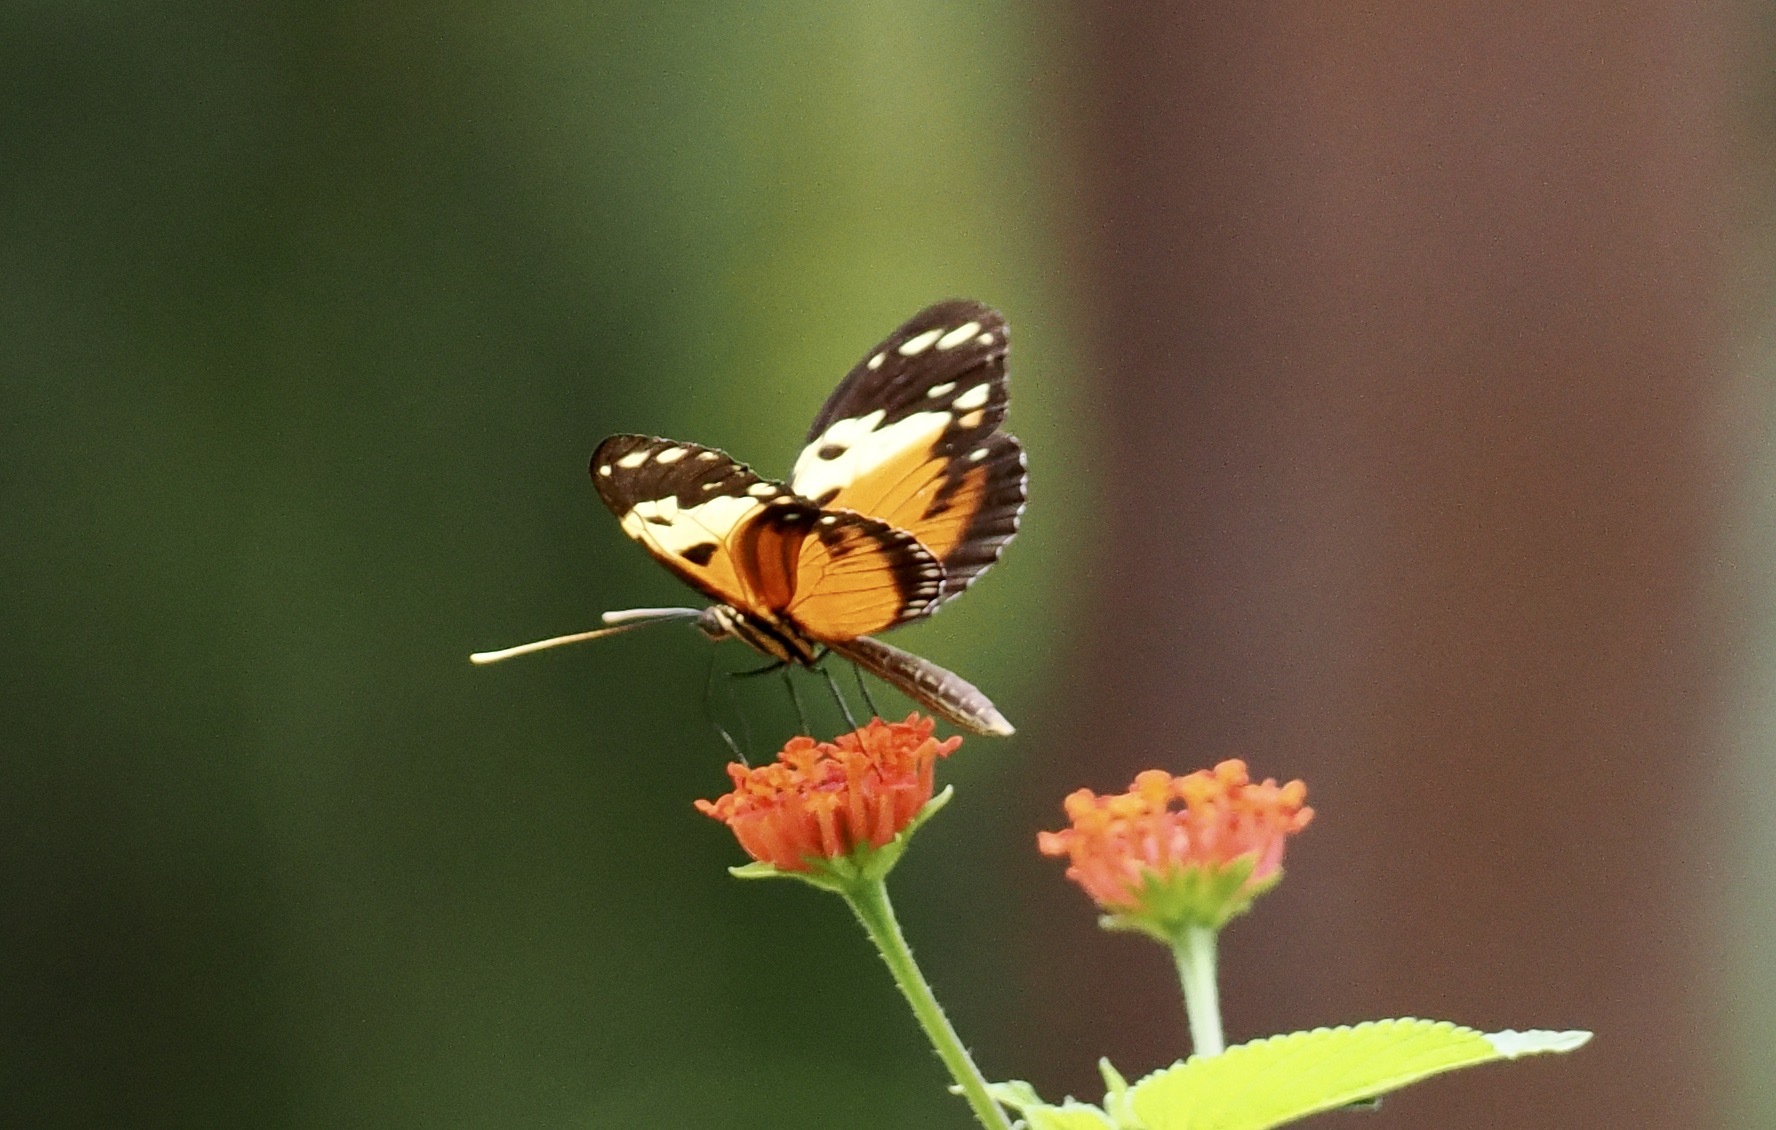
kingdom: Animalia
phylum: Arthropoda
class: Insecta
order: Lepidoptera
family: Nymphalidae
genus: Heliconius
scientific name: Heliconius hecale
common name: Tiger longwing
